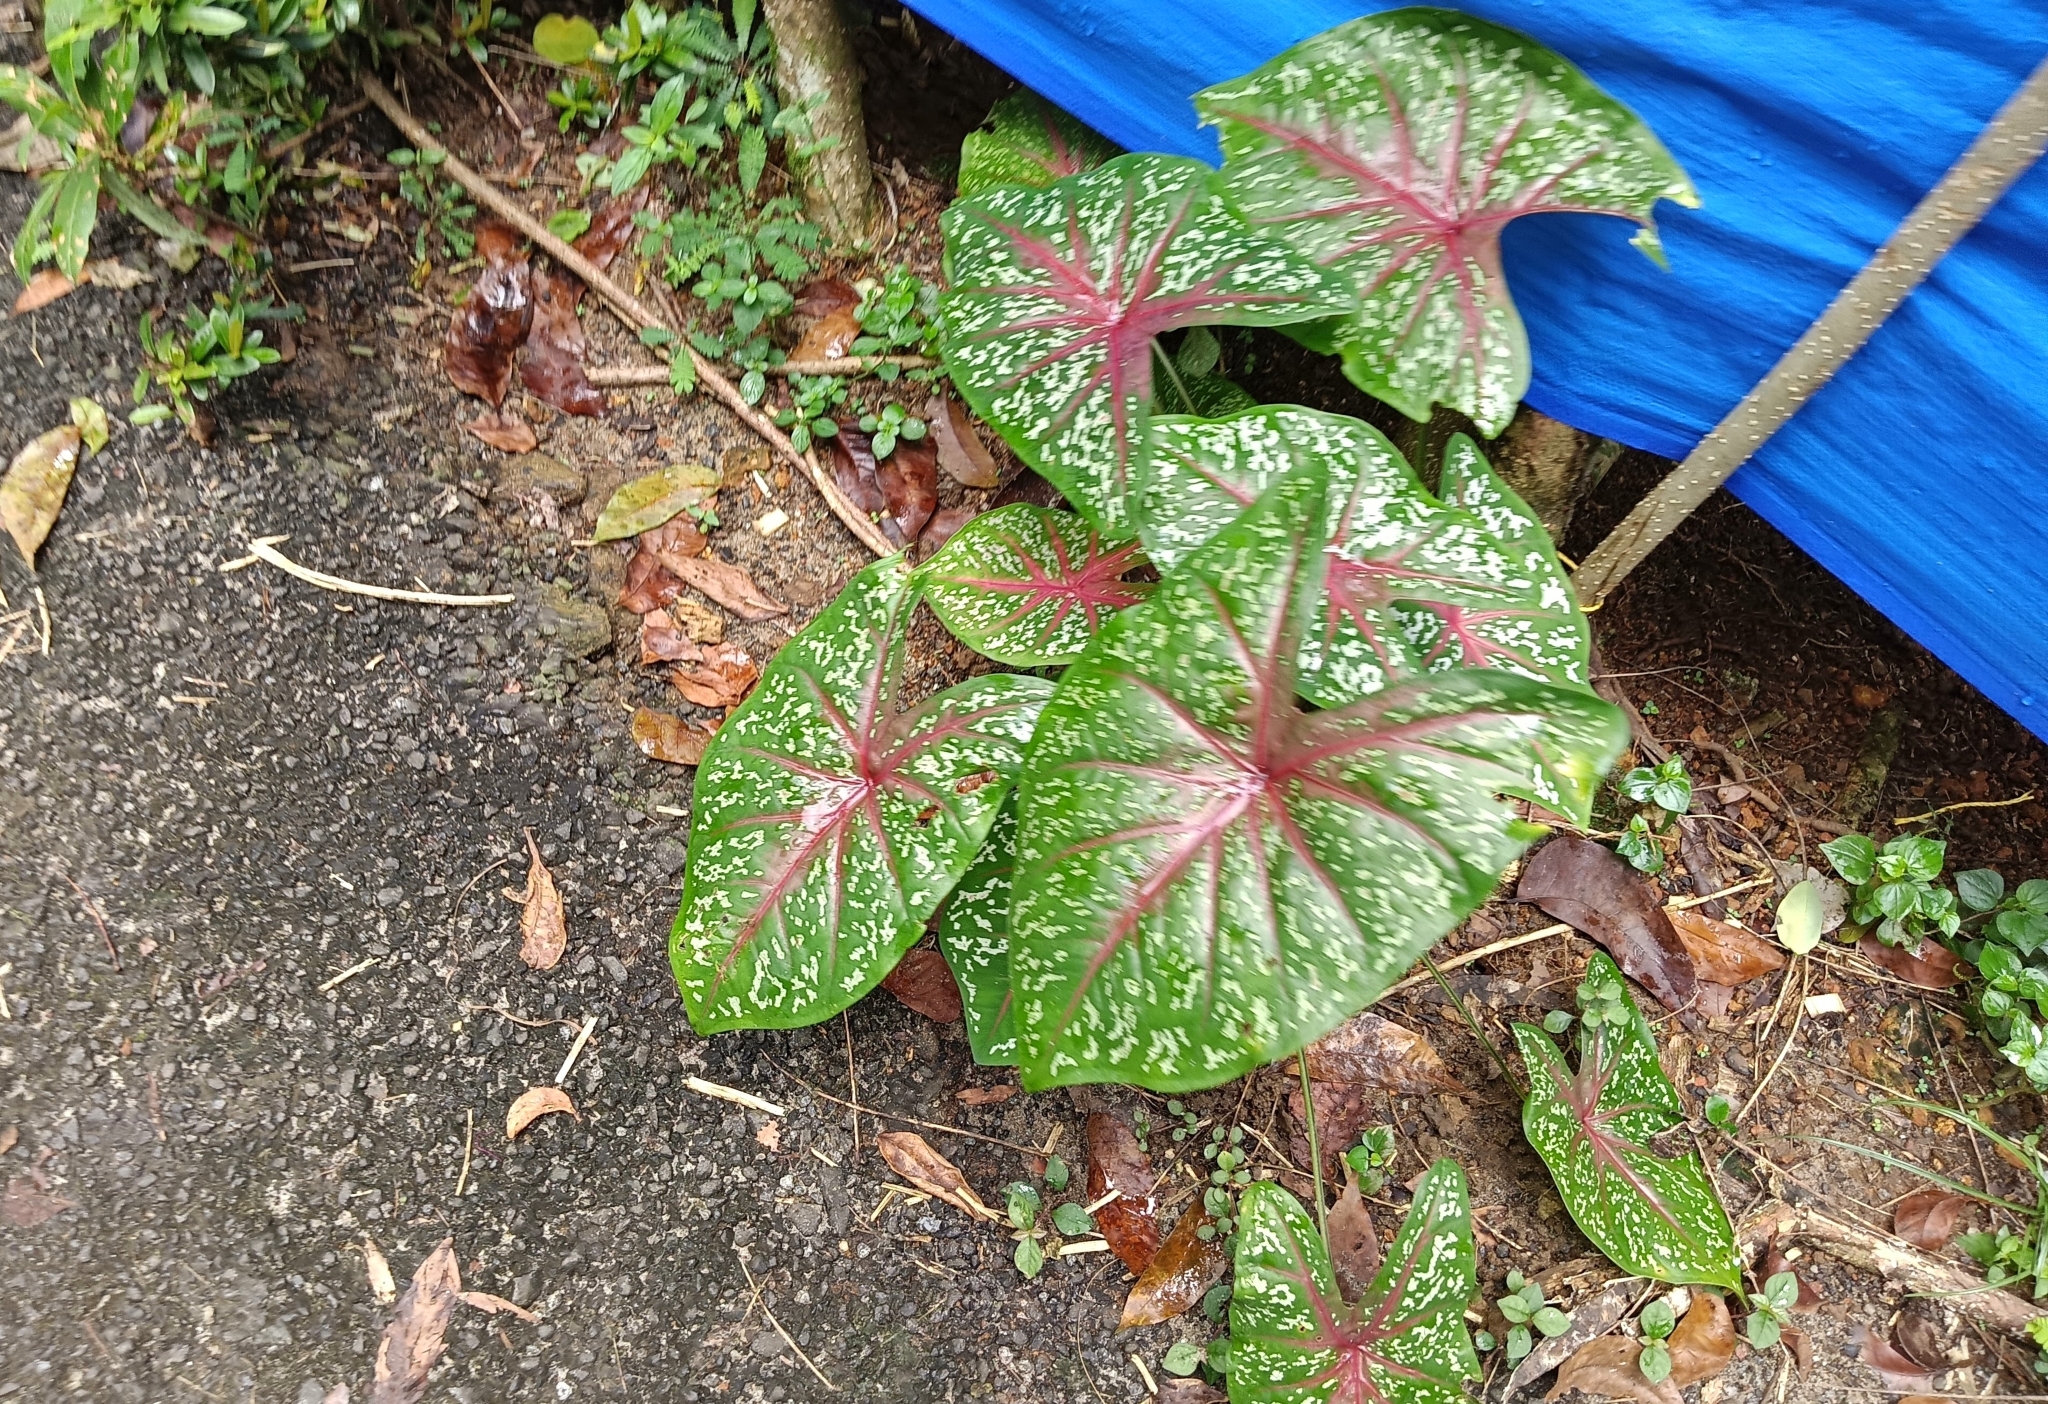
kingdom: Plantae
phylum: Tracheophyta
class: Liliopsida
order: Alismatales
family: Araceae
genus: Caladium
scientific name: Caladium bicolor
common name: Artist's pallet
